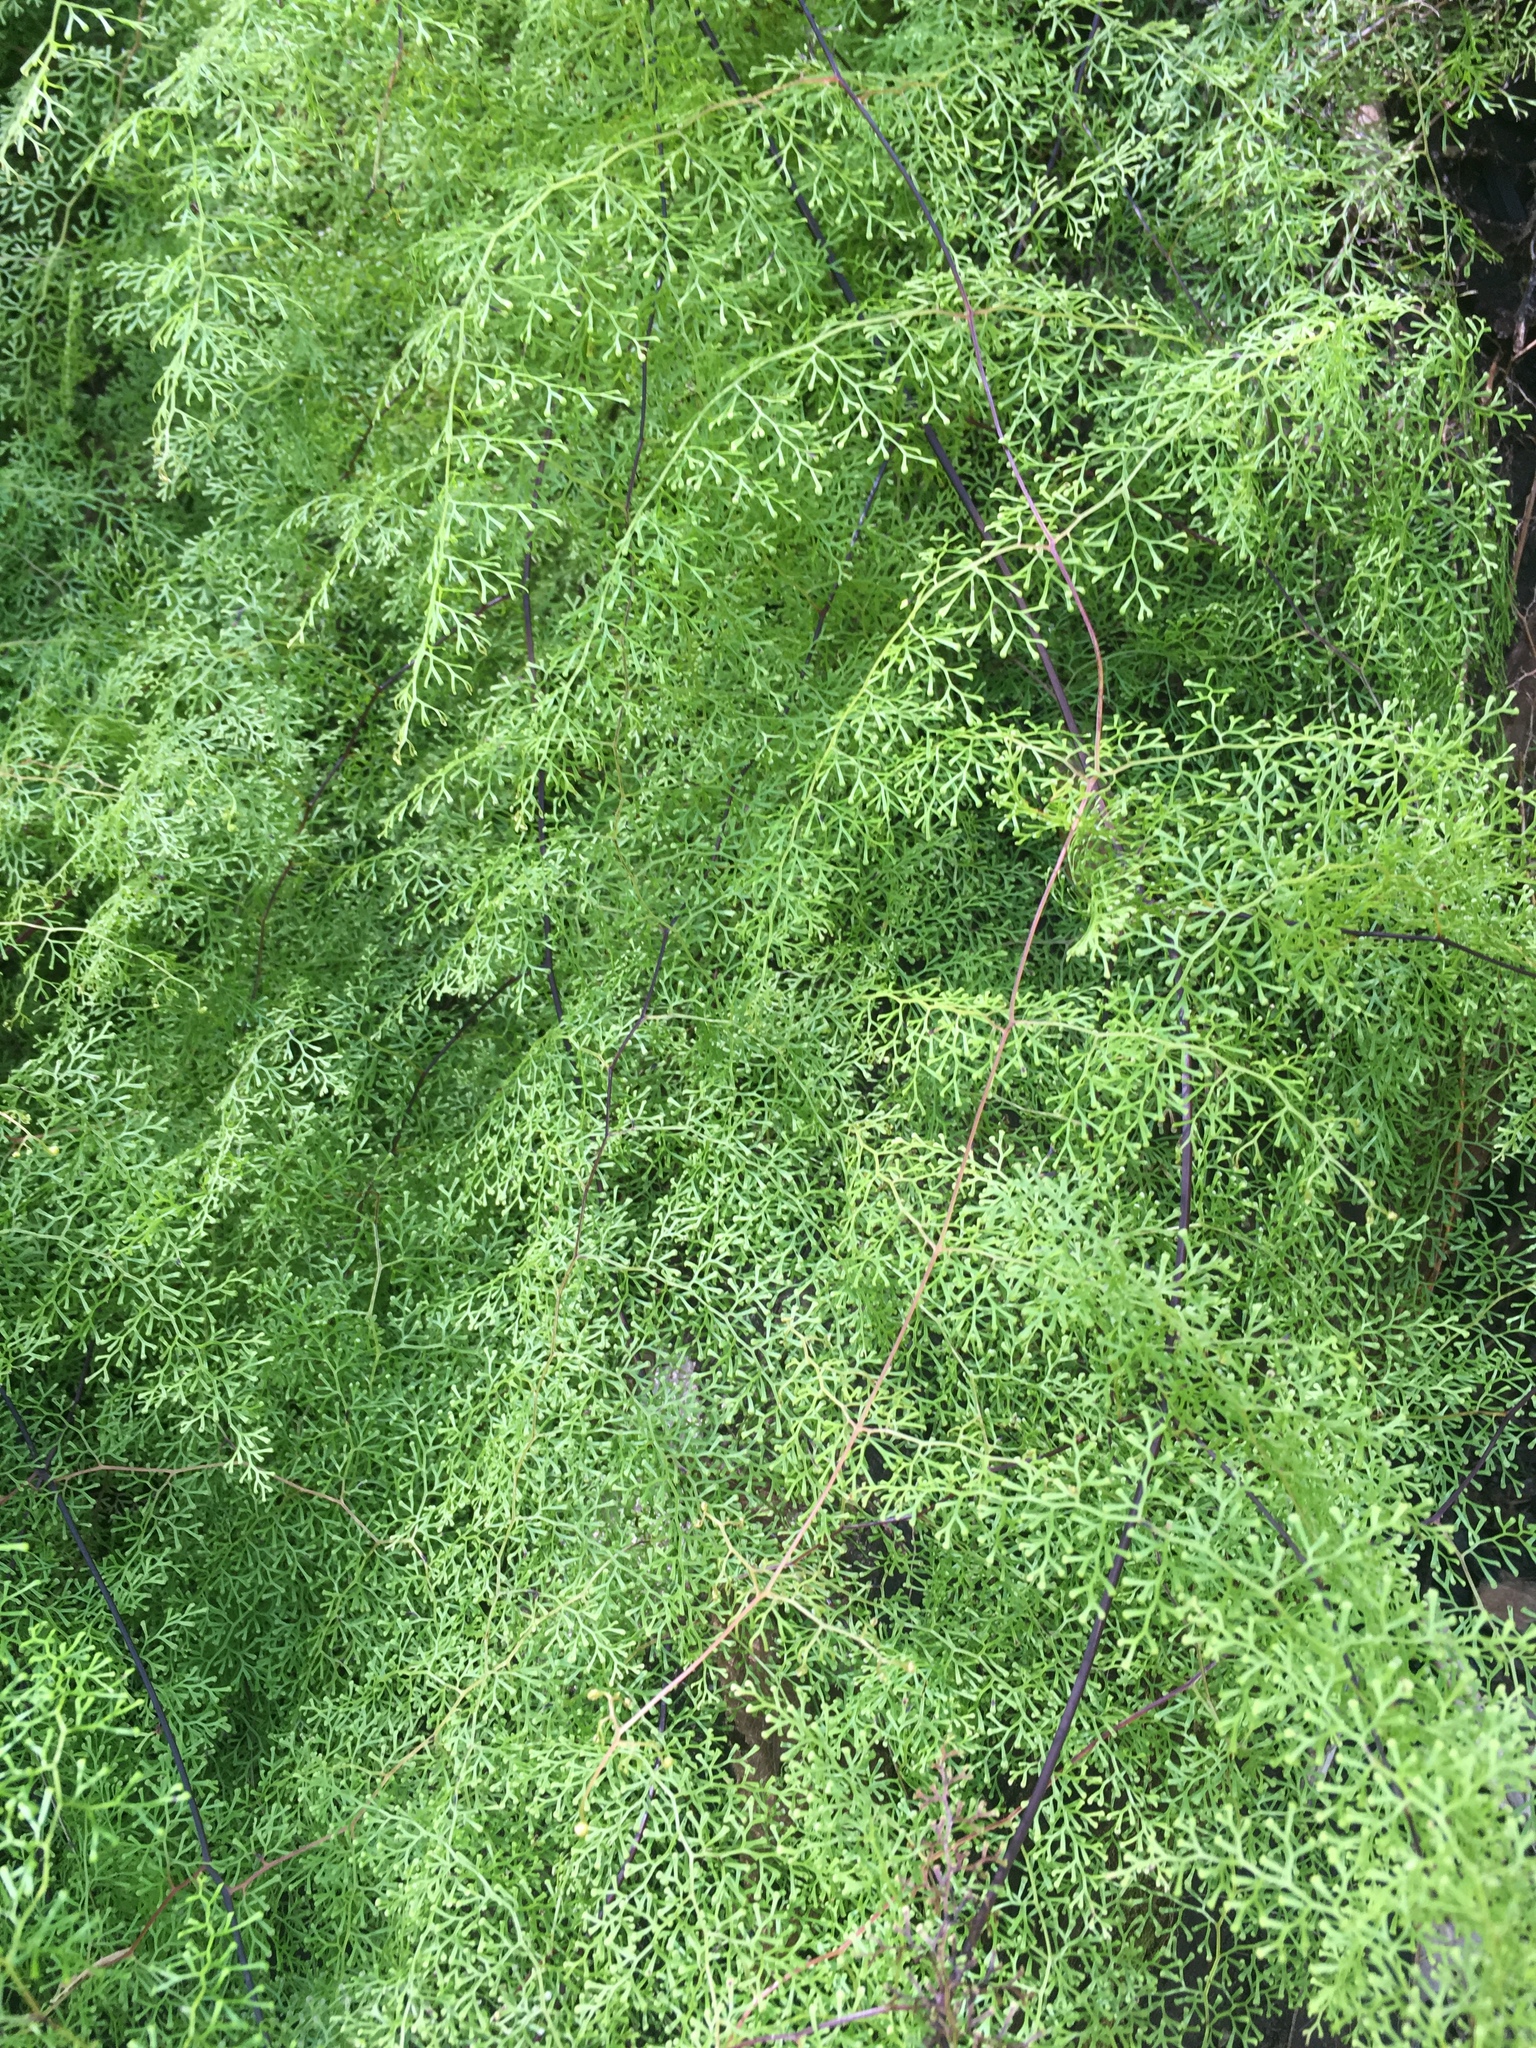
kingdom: Plantae
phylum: Tracheophyta
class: Polypodiopsida
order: Polypodiales
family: Pteridaceae
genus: Jamesonia
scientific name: Jamesonia flexuosa
